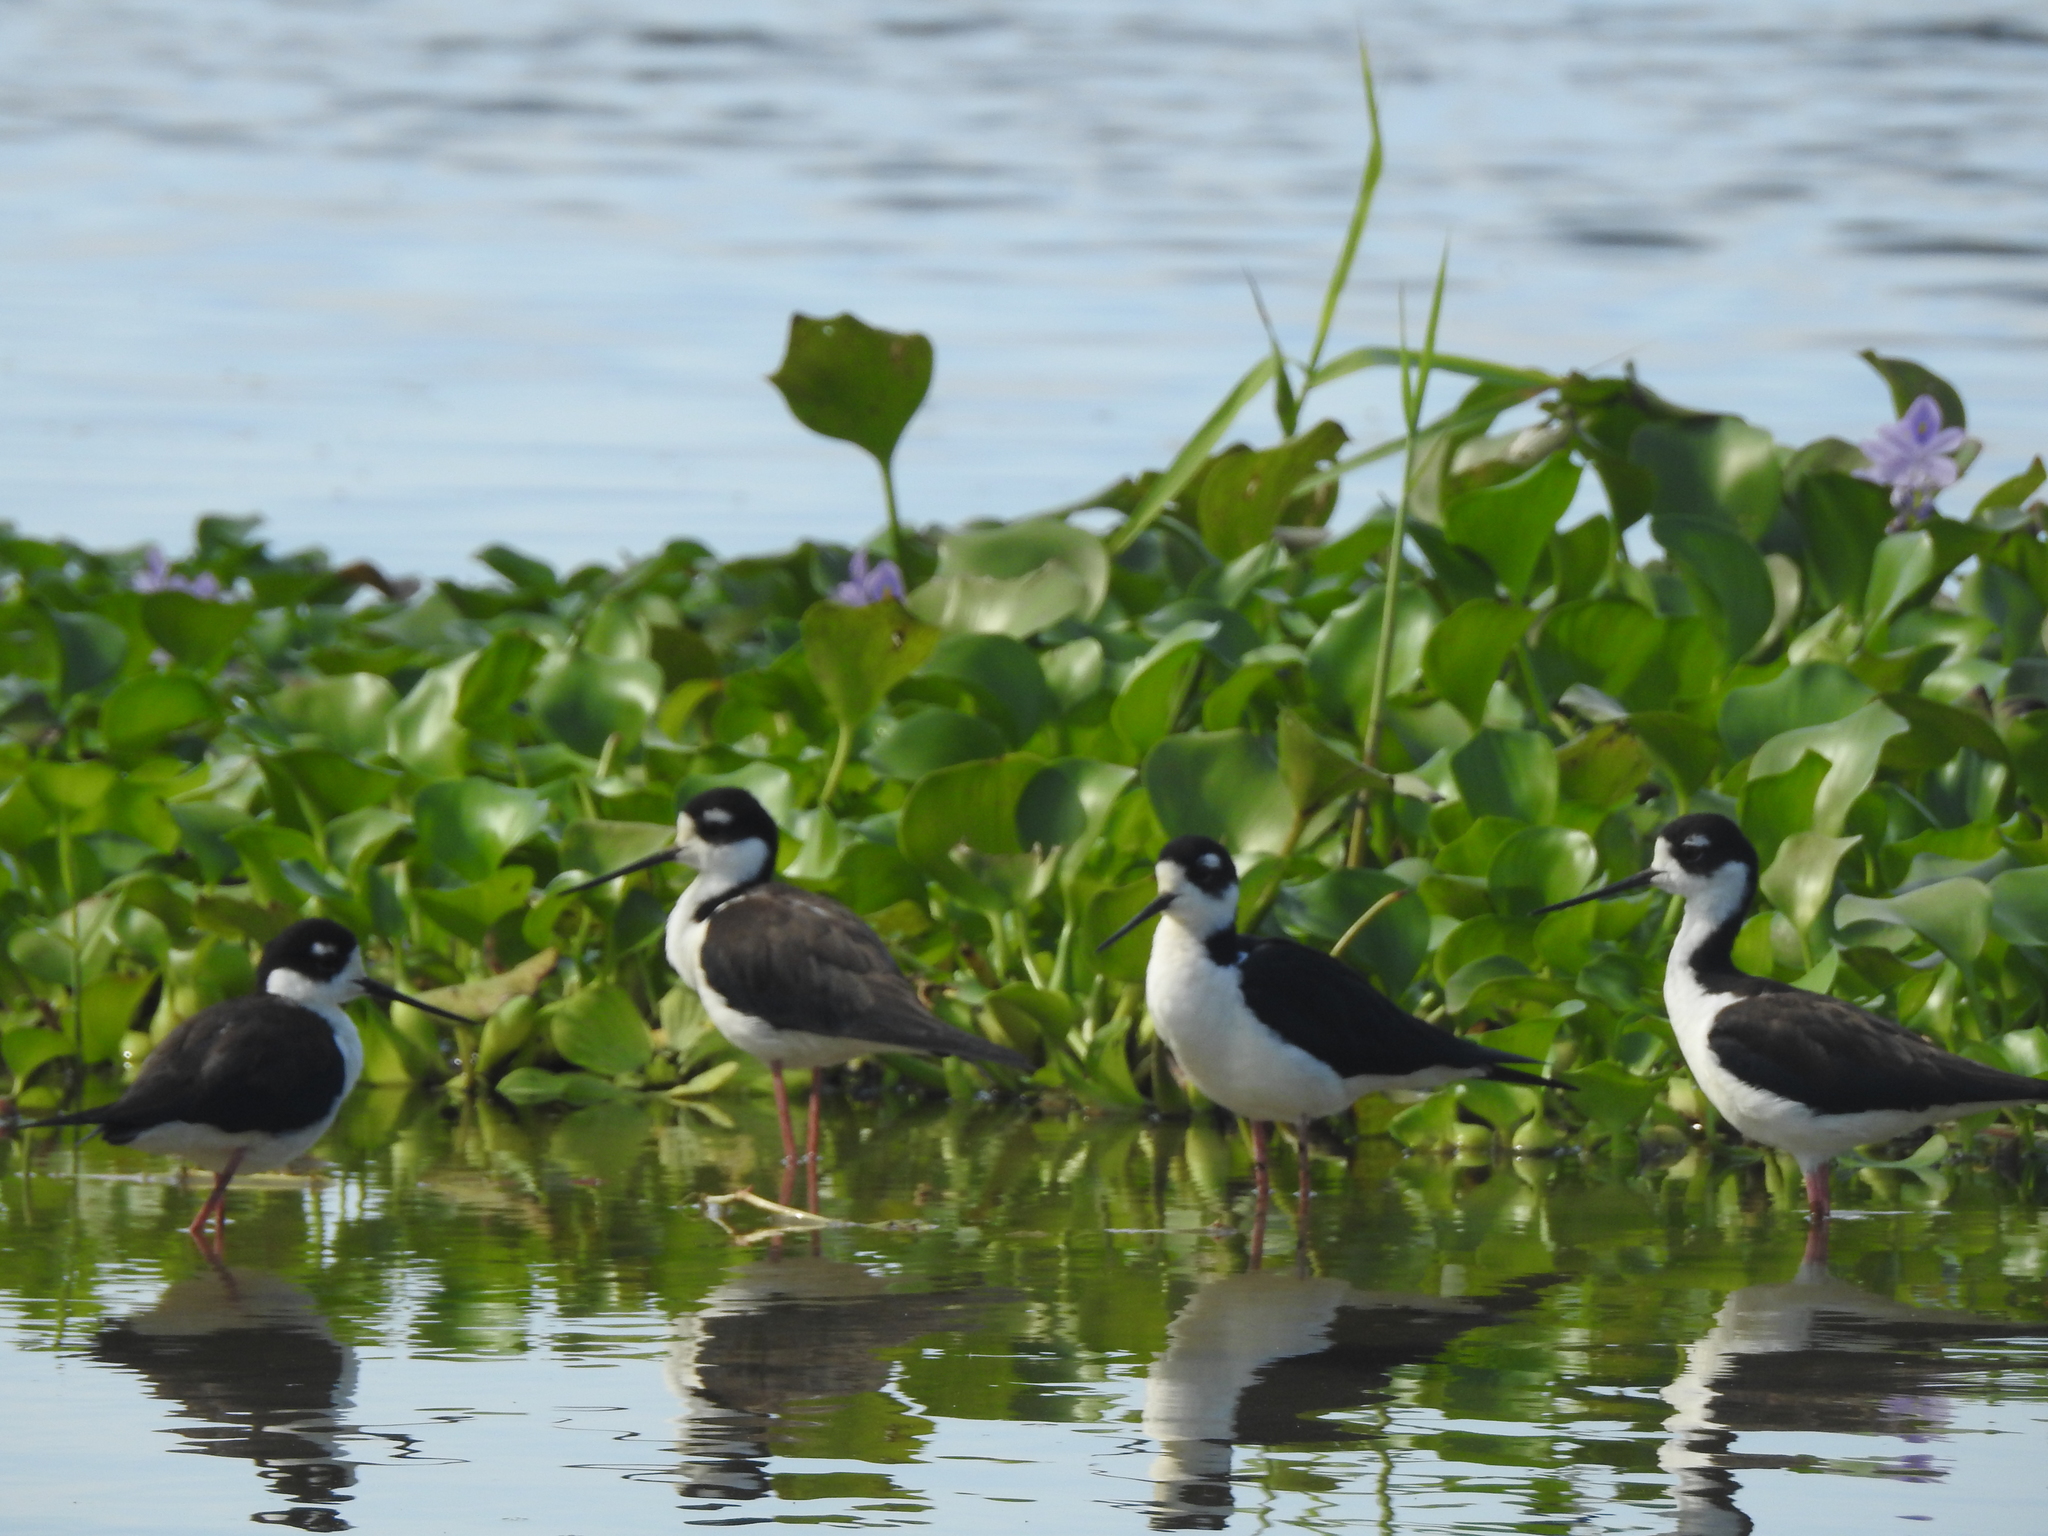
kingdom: Animalia
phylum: Chordata
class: Aves
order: Charadriiformes
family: Recurvirostridae
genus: Himantopus
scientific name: Himantopus mexicanus
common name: Black-necked stilt
